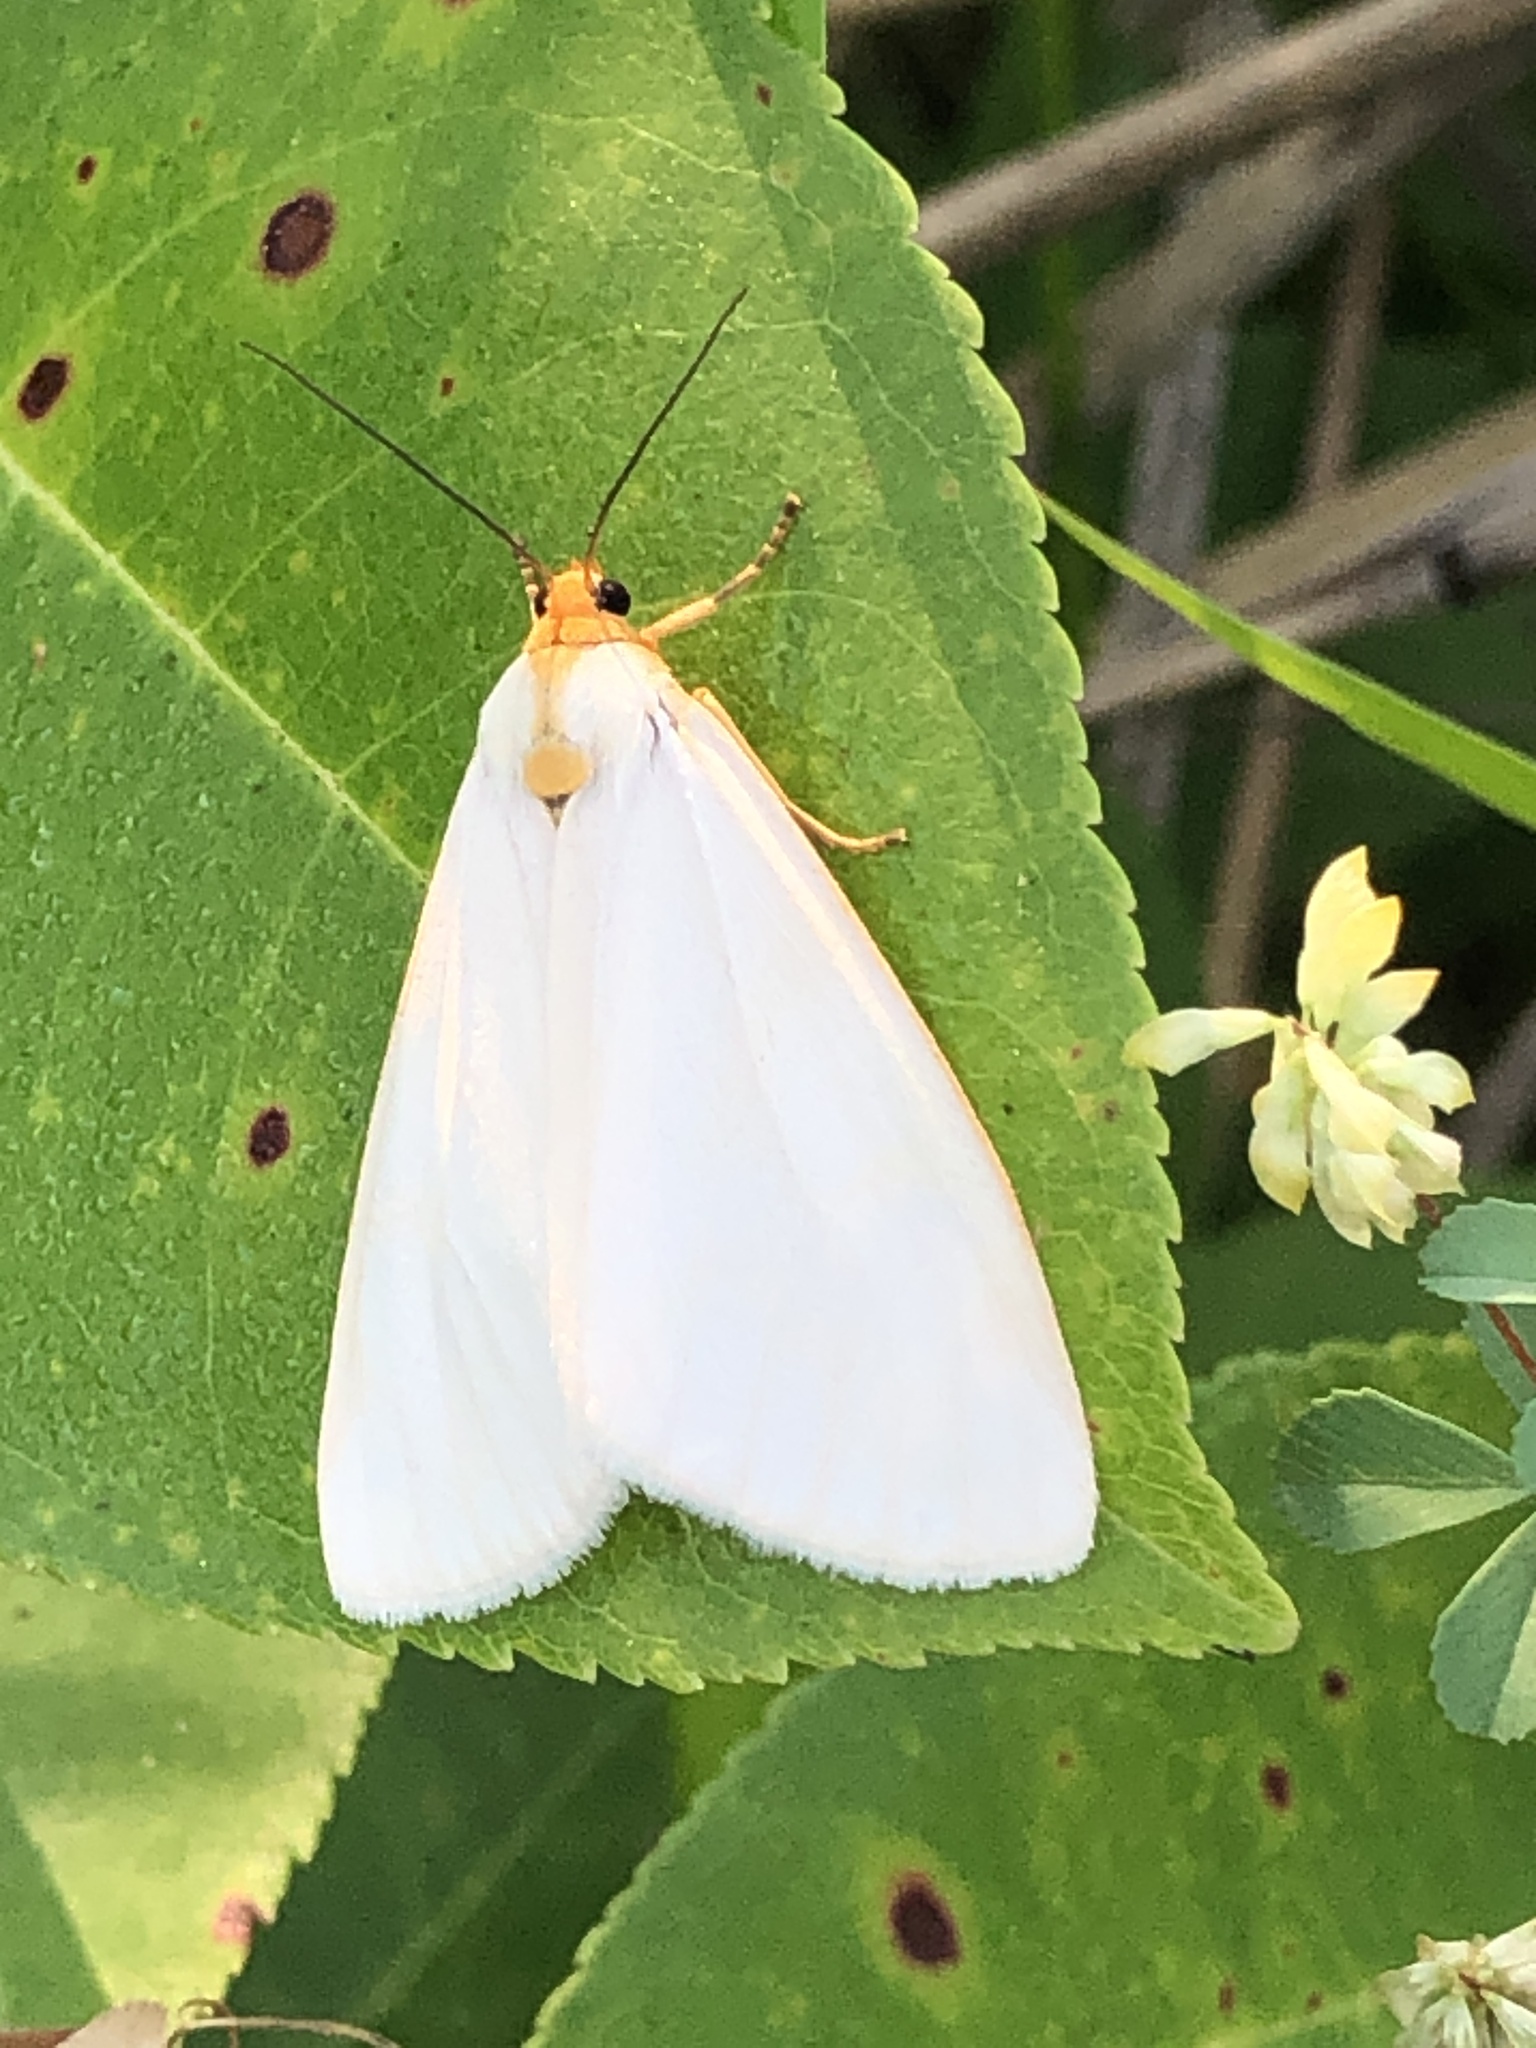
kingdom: Animalia
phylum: Arthropoda
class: Insecta
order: Lepidoptera
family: Erebidae
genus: Cycnia
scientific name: Cycnia tenera
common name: Delicate cycnia moth
